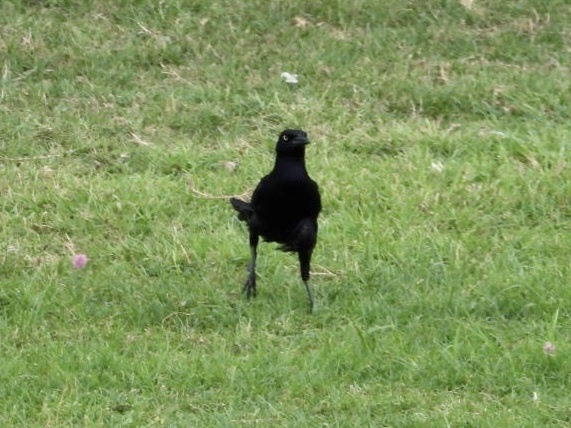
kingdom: Animalia
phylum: Chordata
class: Aves
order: Passeriformes
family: Icteridae
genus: Quiscalus
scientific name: Quiscalus mexicanus
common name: Great-tailed grackle
